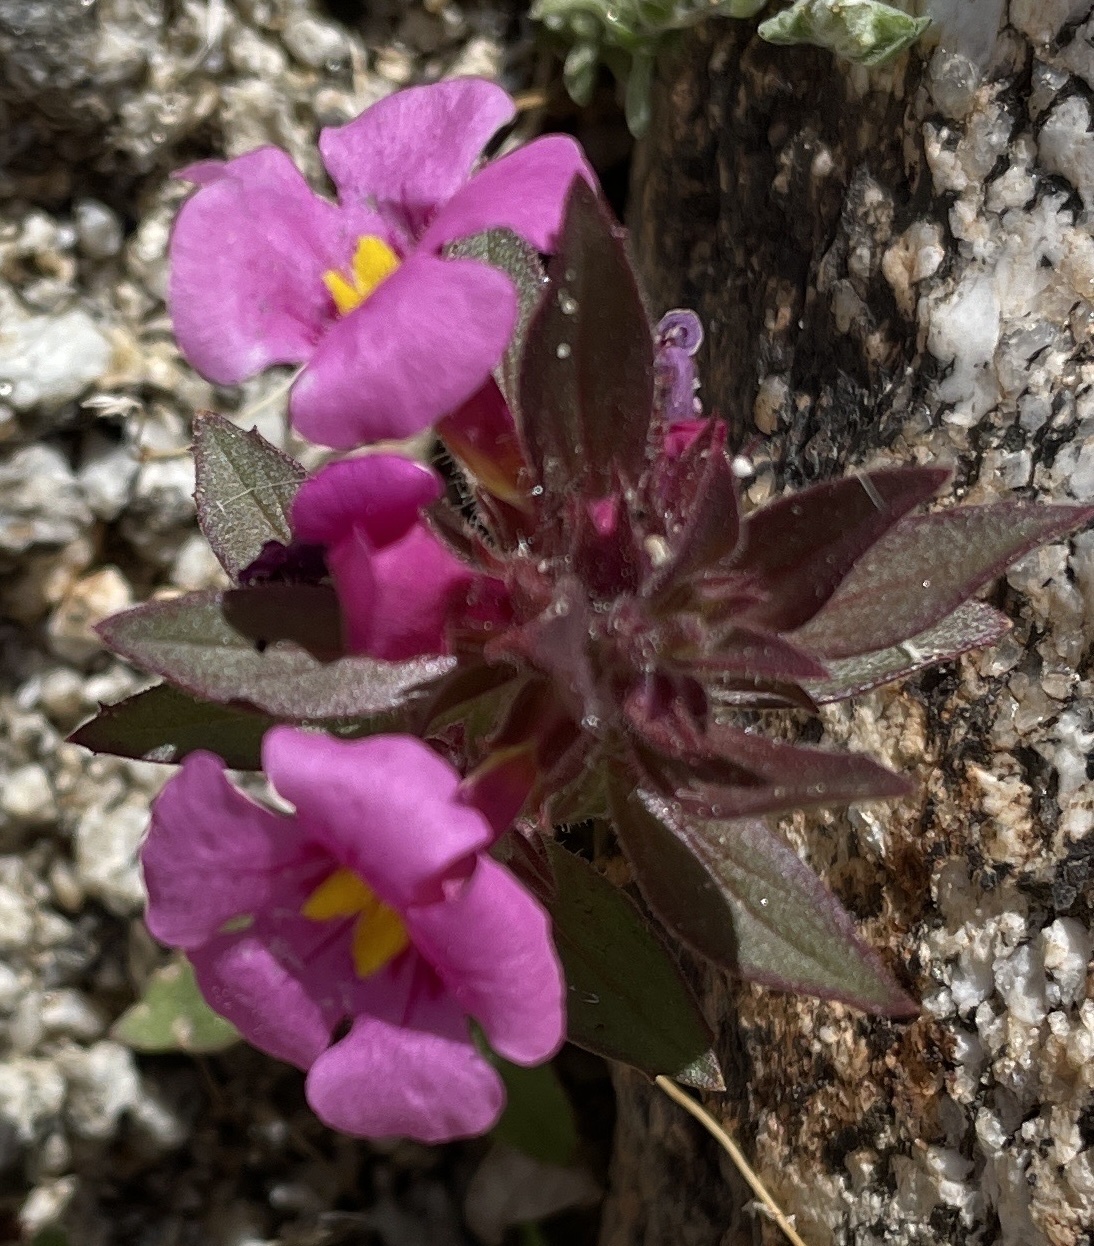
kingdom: Plantae
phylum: Tracheophyta
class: Magnoliopsida
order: Lamiales
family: Phrymaceae
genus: Diplacus
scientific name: Diplacus bigelovii
